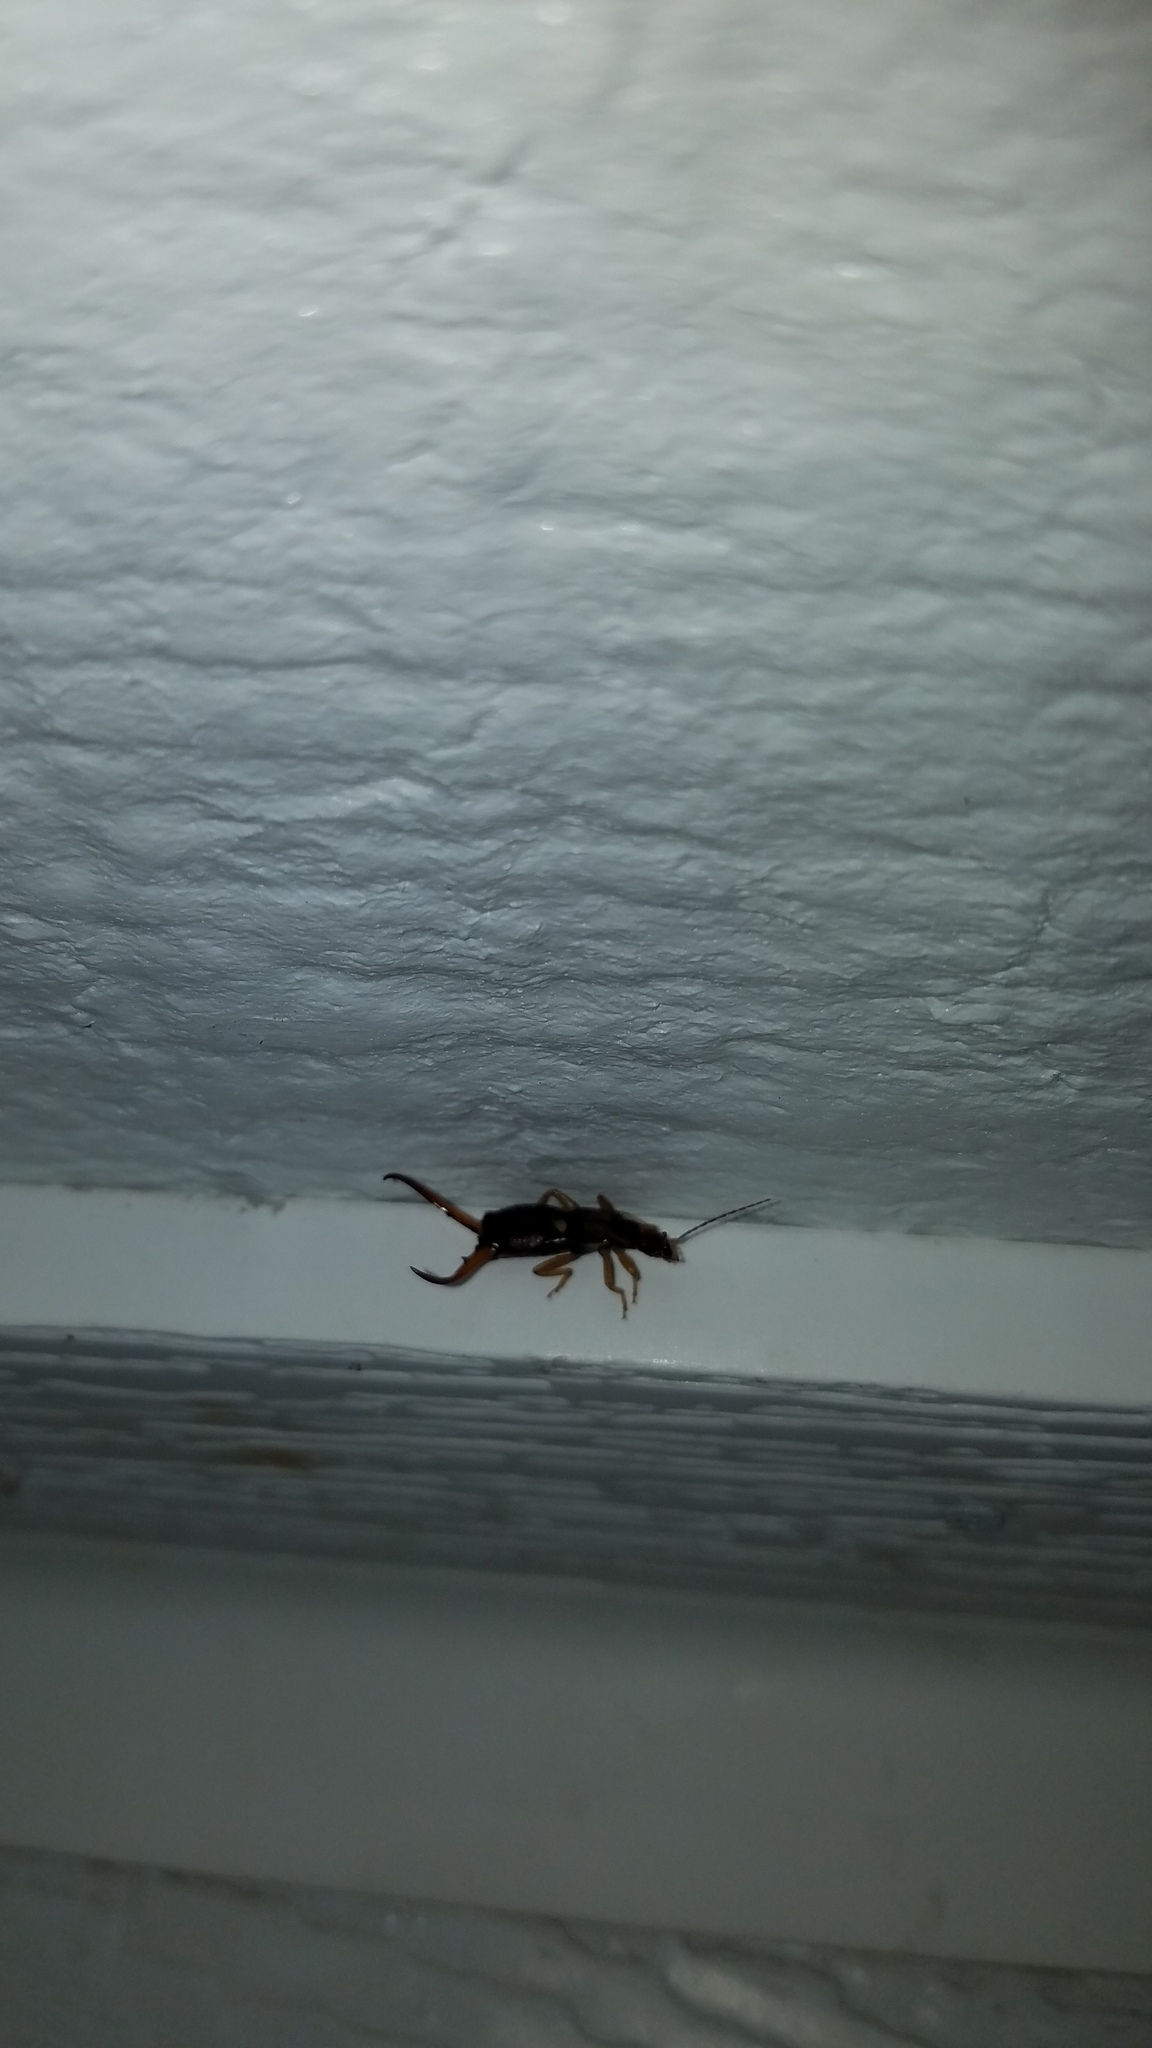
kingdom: Animalia
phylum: Arthropoda
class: Insecta
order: Dermaptera
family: Forficulidae
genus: Forficula
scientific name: Forficula
